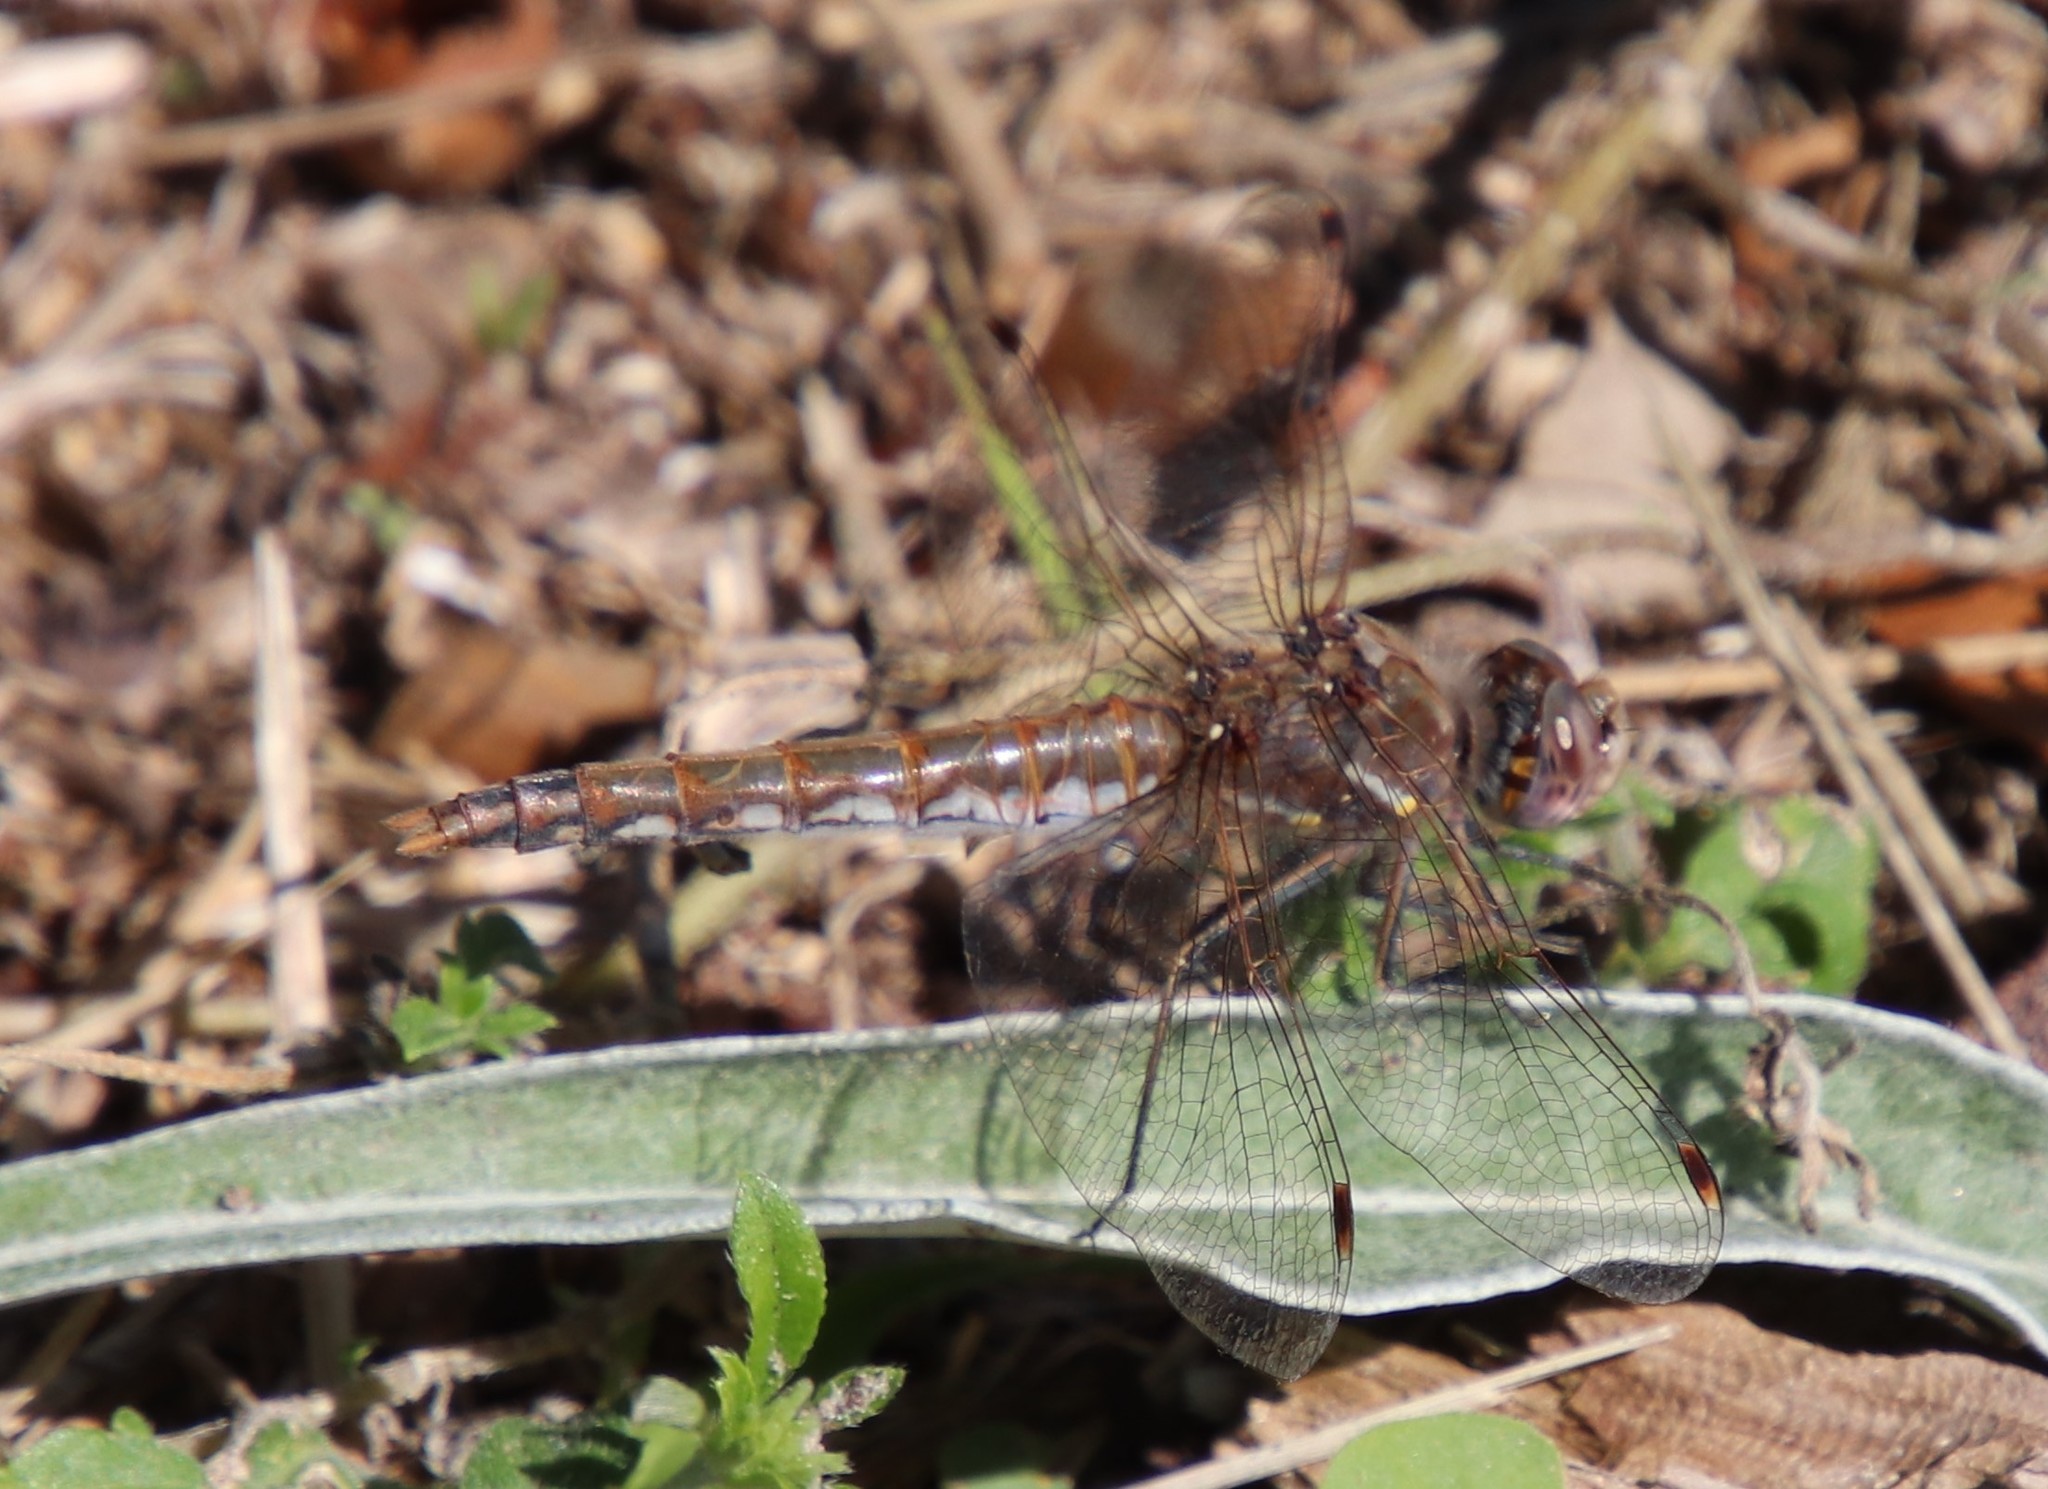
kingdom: Animalia
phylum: Arthropoda
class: Insecta
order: Odonata
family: Libellulidae
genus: Sympetrum
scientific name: Sympetrum corruptum
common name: Variegated meadowhawk
